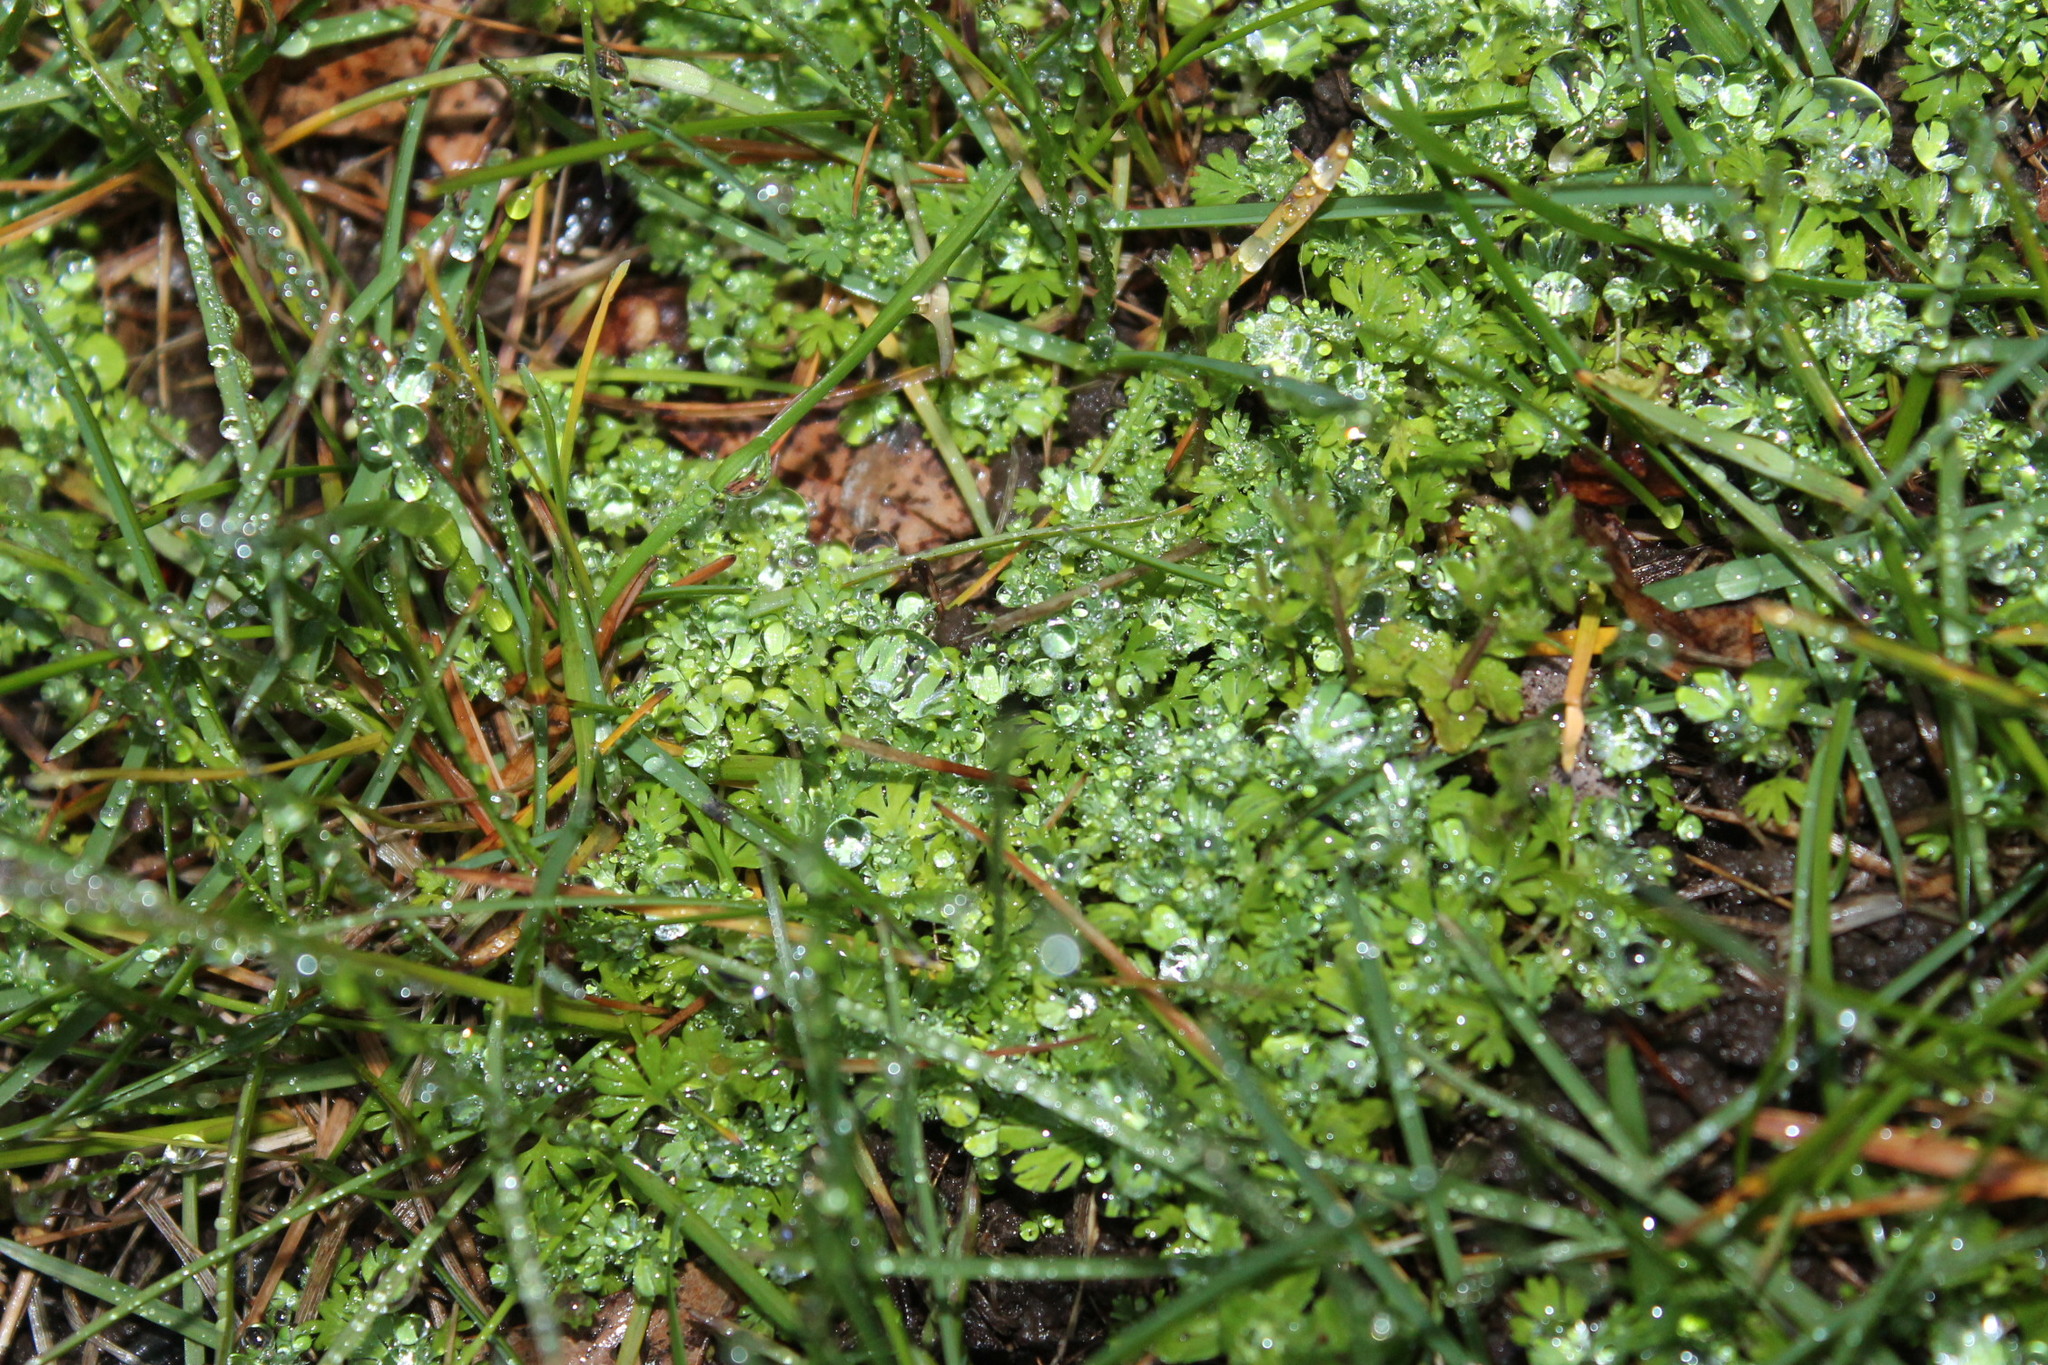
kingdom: Plantae
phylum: Tracheophyta
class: Magnoliopsida
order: Rosales
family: Rosaceae
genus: Aphanes
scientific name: Aphanes australis
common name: Slender parsley-piert
